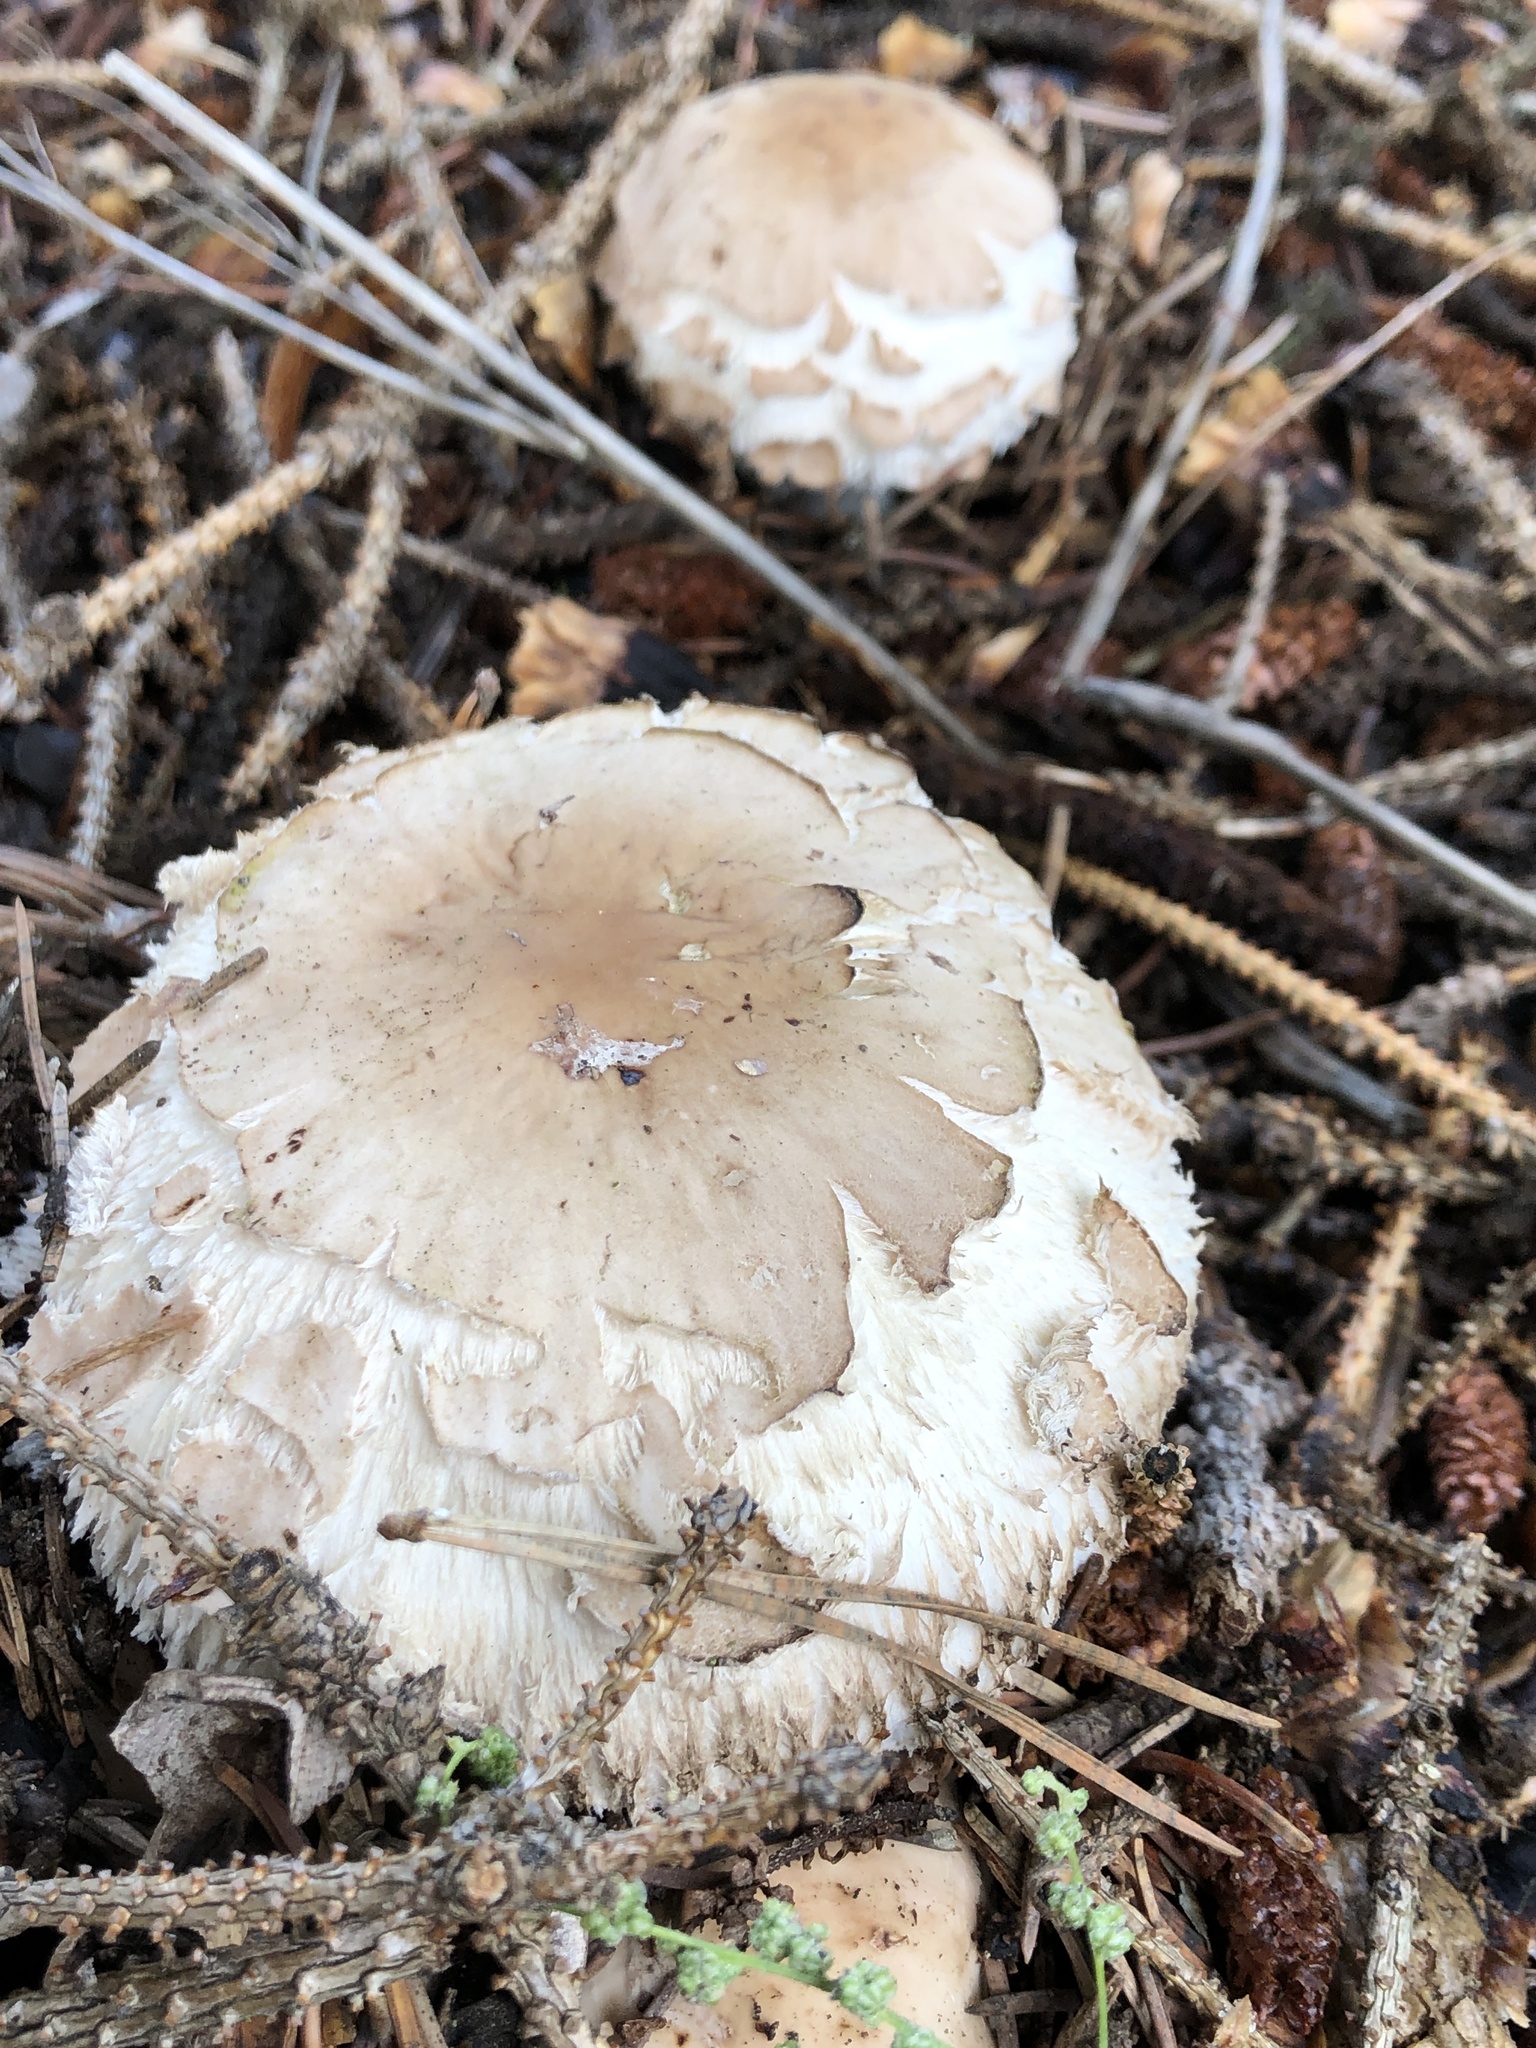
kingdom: Fungi
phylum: Basidiomycota
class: Agaricomycetes
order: Agaricales
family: Agaricaceae
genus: Chlorophyllum
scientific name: Chlorophyllum rhacodes
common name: Shaggy parasol
